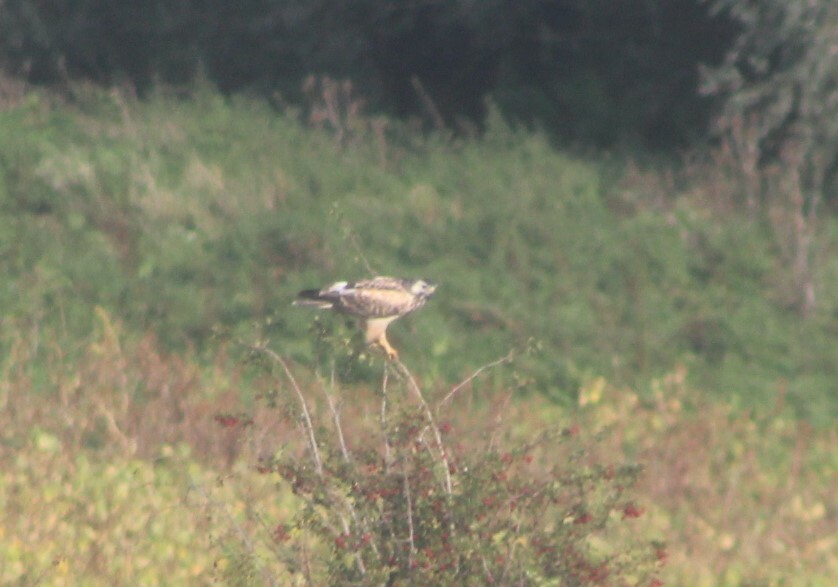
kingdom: Animalia
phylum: Chordata
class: Aves
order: Accipitriformes
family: Accipitridae
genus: Buteo
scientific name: Buteo buteo
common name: Common buzzard
